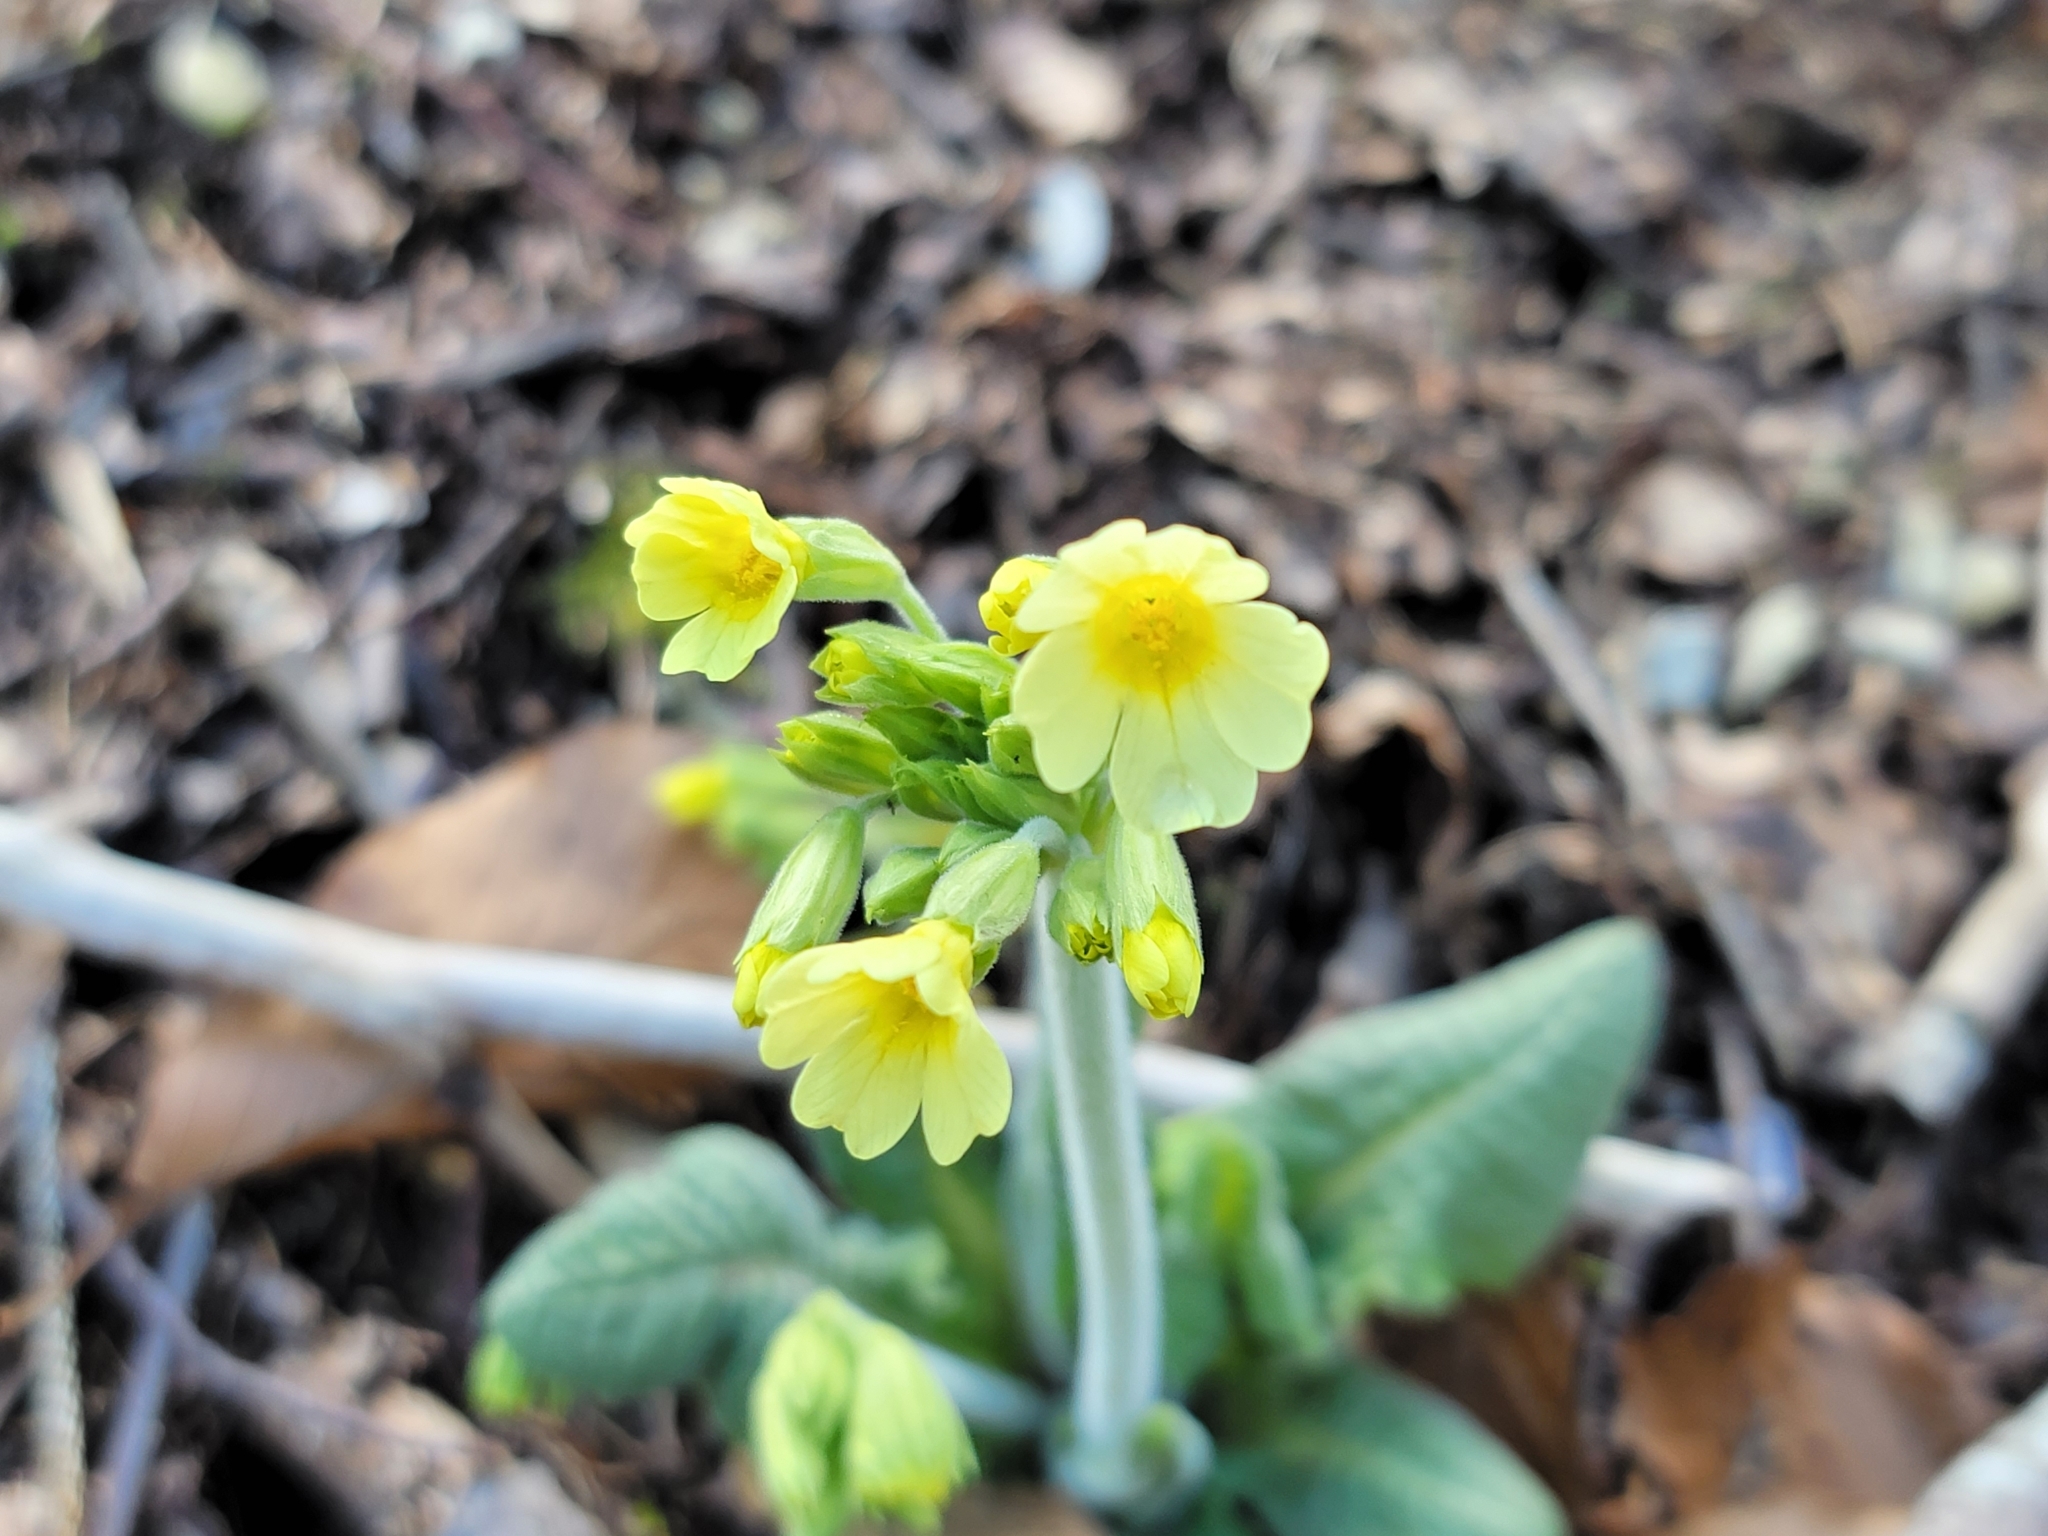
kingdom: Plantae
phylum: Tracheophyta
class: Magnoliopsida
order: Ericales
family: Primulaceae
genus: Primula
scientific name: Primula elatior
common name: Oxlip
